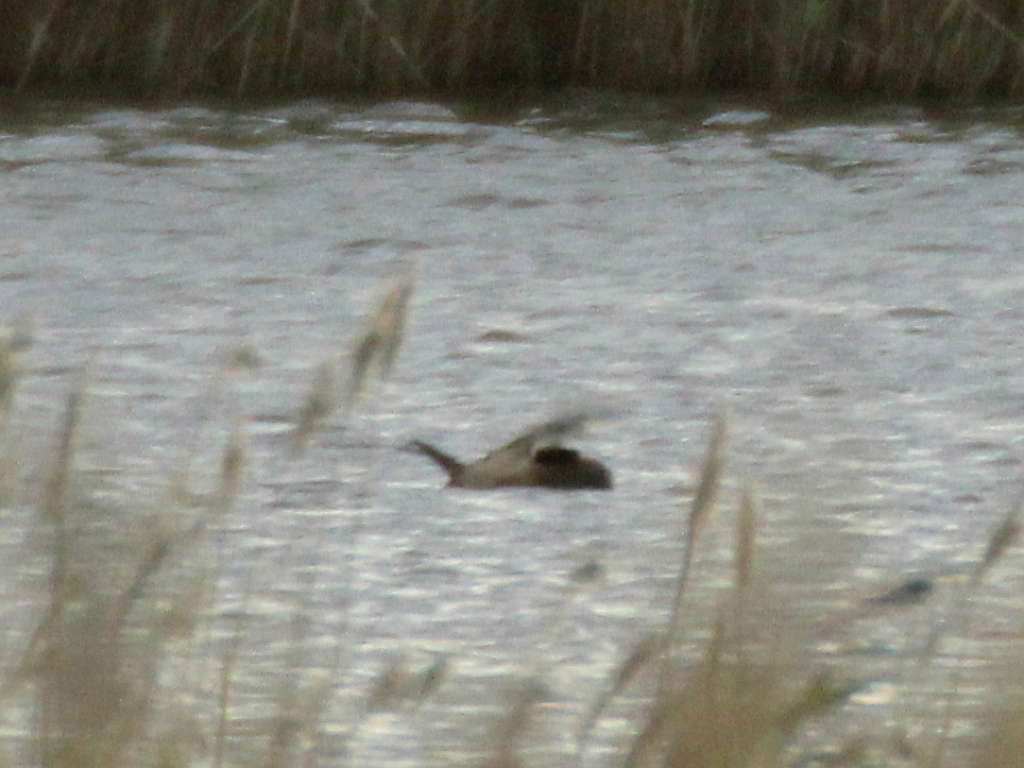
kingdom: Animalia
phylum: Chordata
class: Aves
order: Anseriformes
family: Anatidae
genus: Oxyura
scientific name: Oxyura leucocephala
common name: White-headed duck
